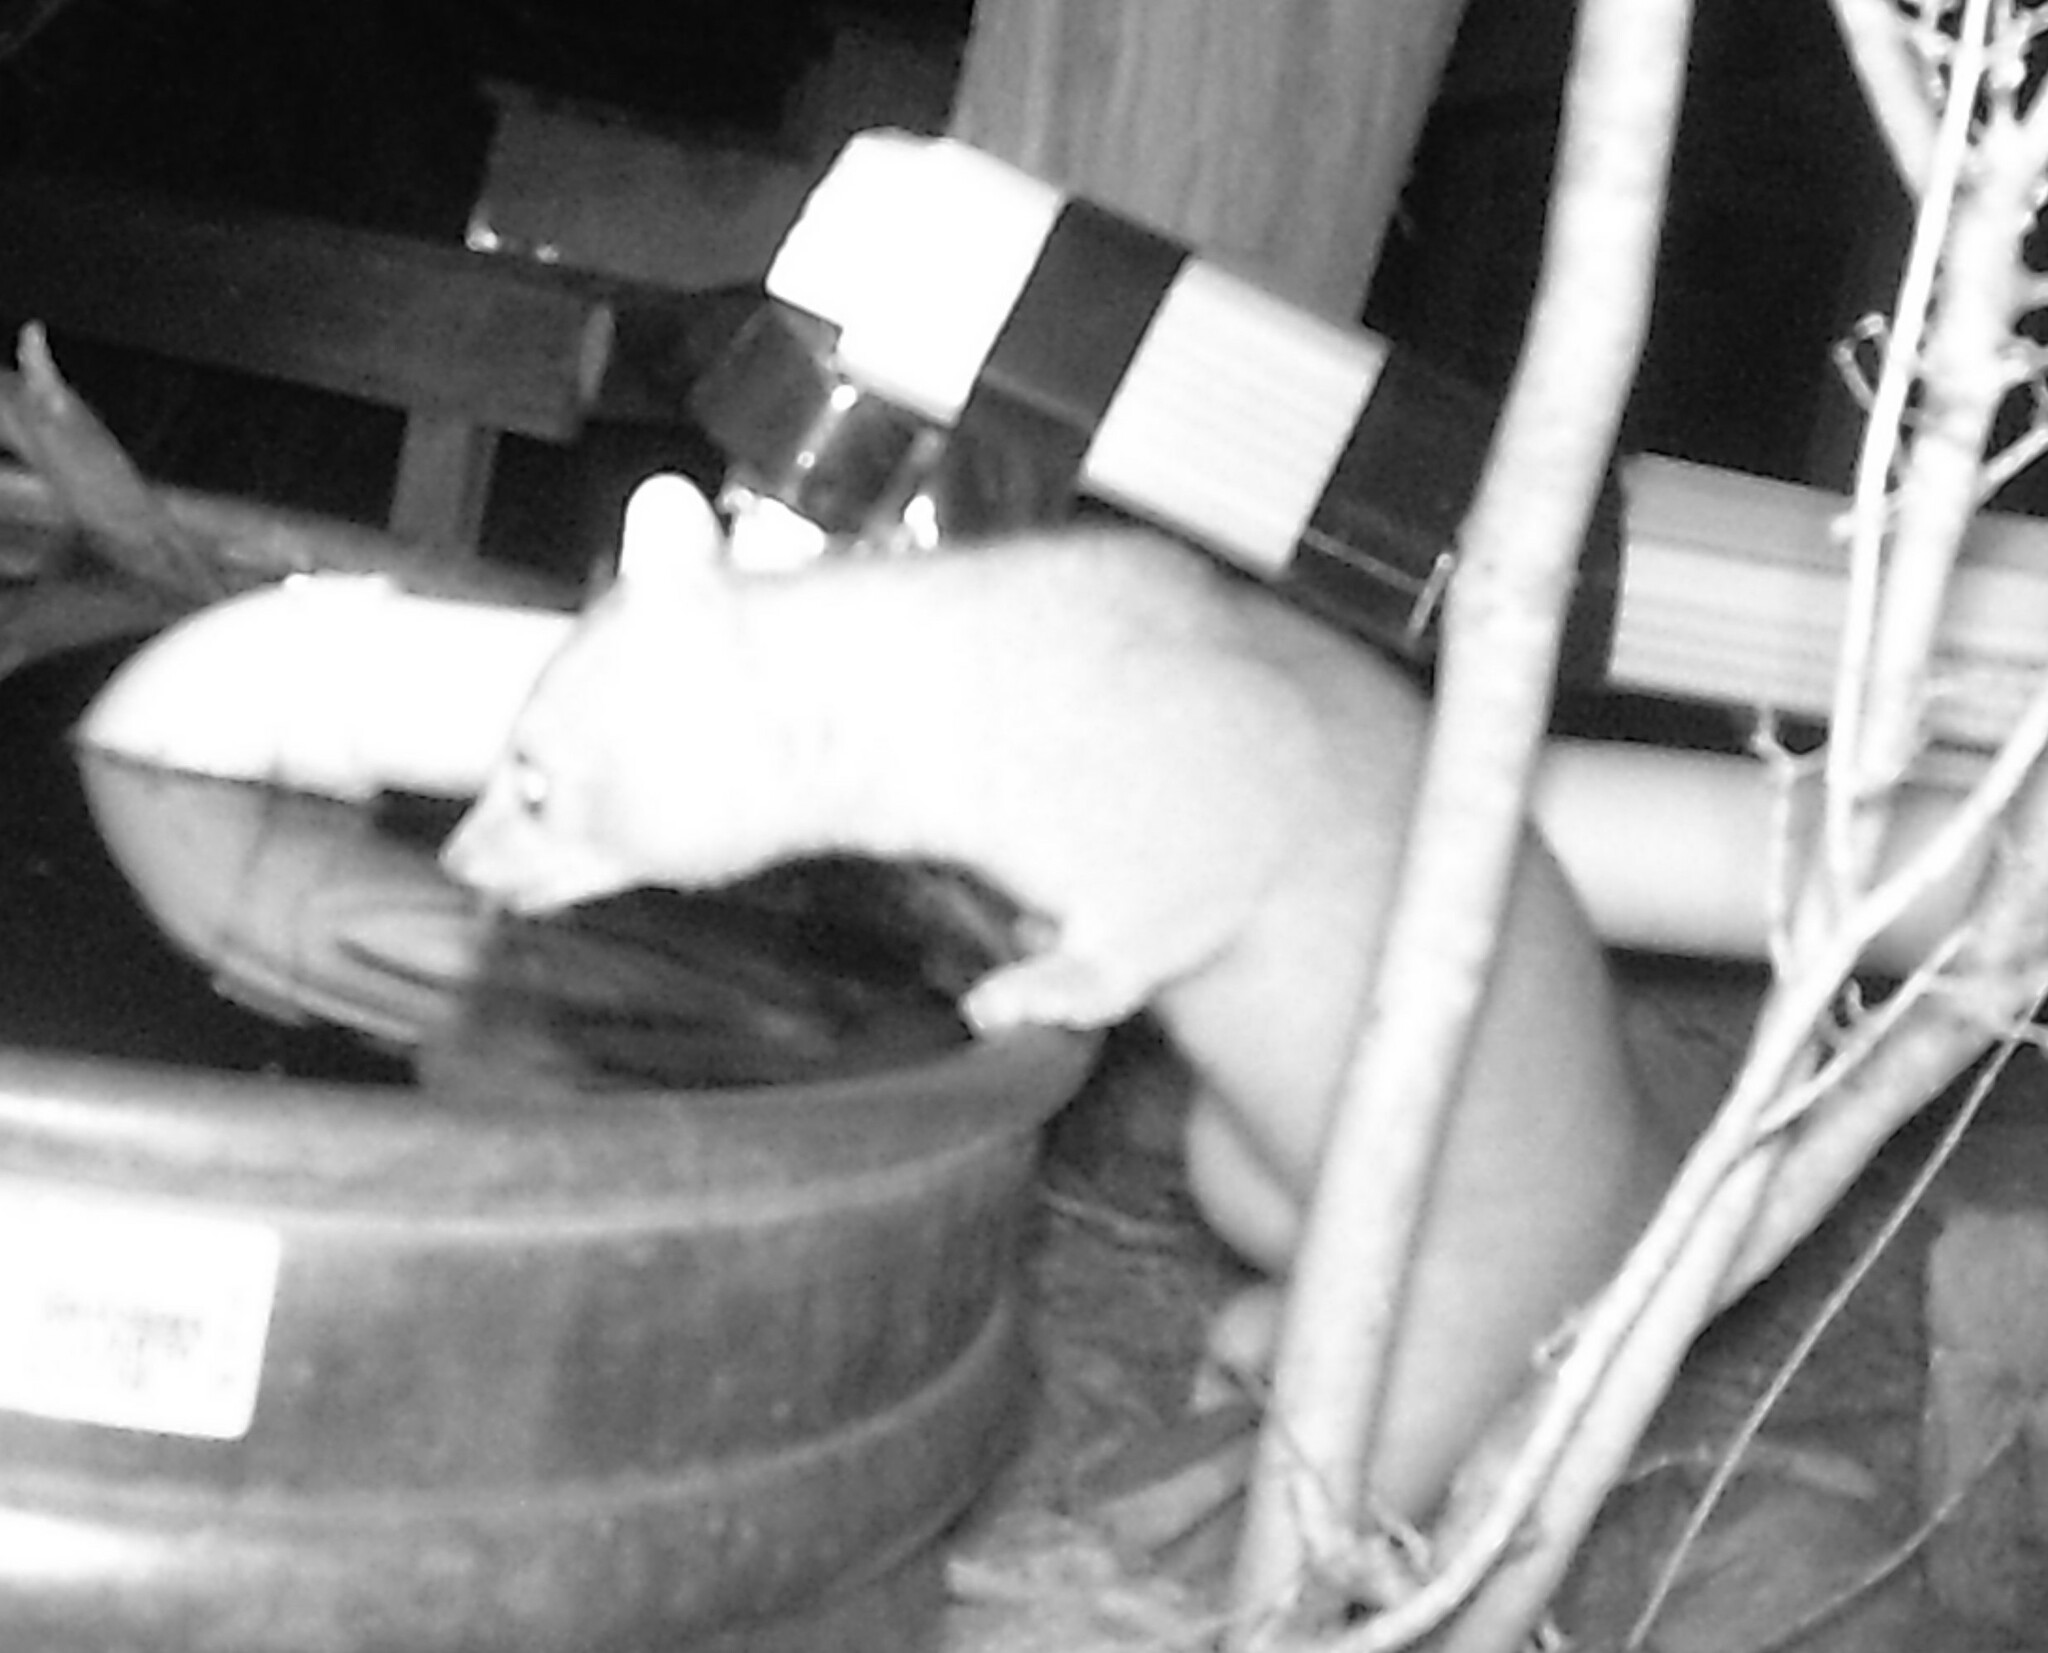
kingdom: Animalia
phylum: Chordata
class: Mammalia
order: Carnivora
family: Procyonidae
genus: Bassariscus
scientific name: Bassariscus astutus
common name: Ringtail
